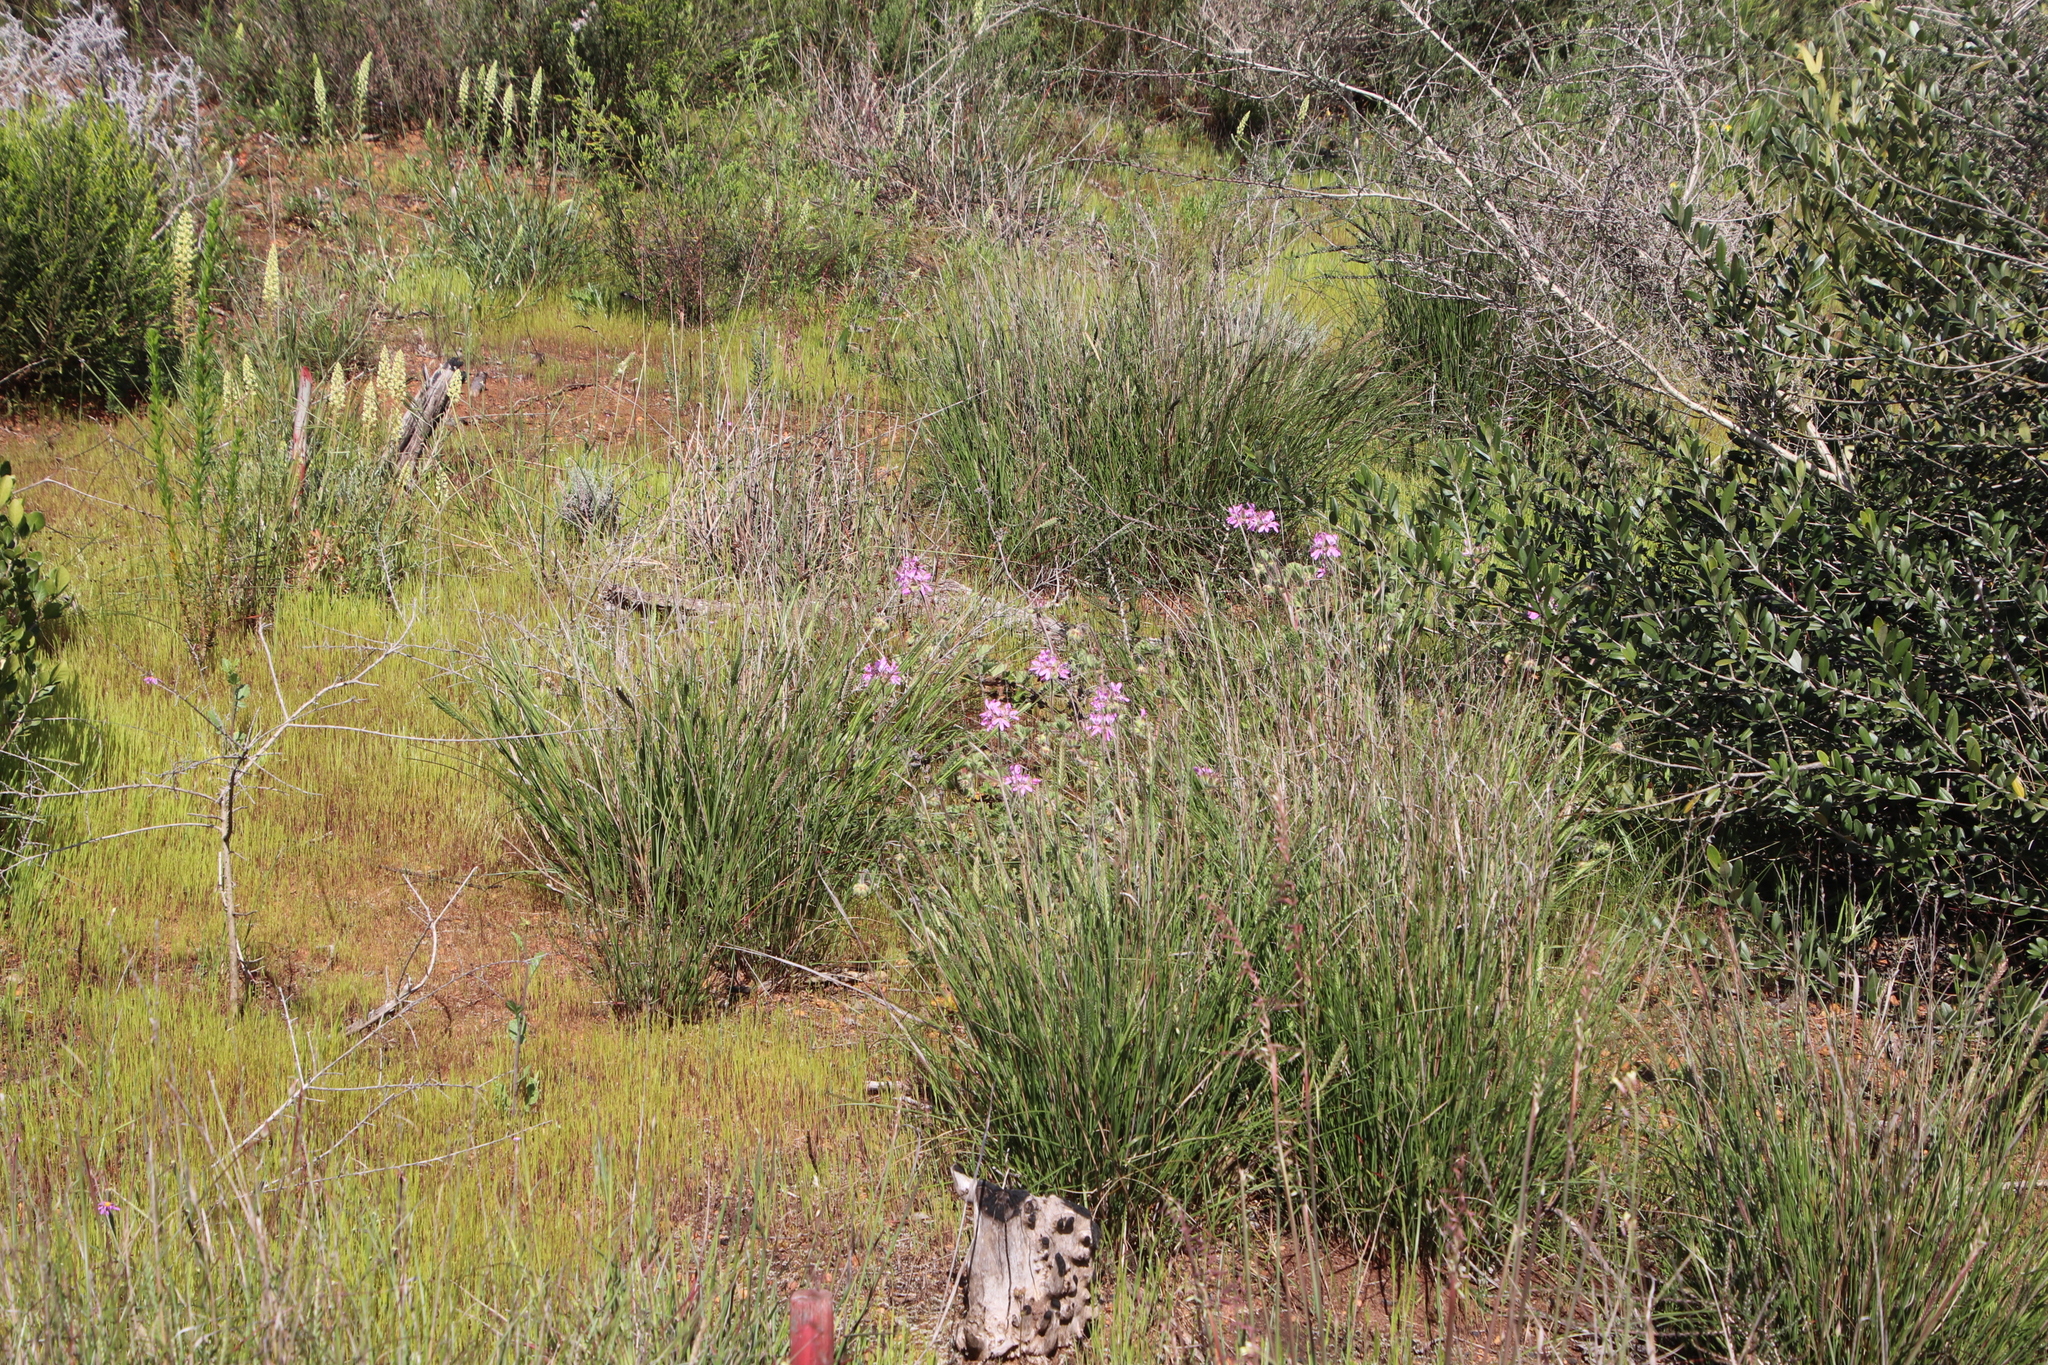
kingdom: Plantae
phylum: Tracheophyta
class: Magnoliopsida
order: Geraniales
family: Geraniaceae
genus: Pelargonium
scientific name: Pelargonium capitatum
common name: Rose scented geranium
